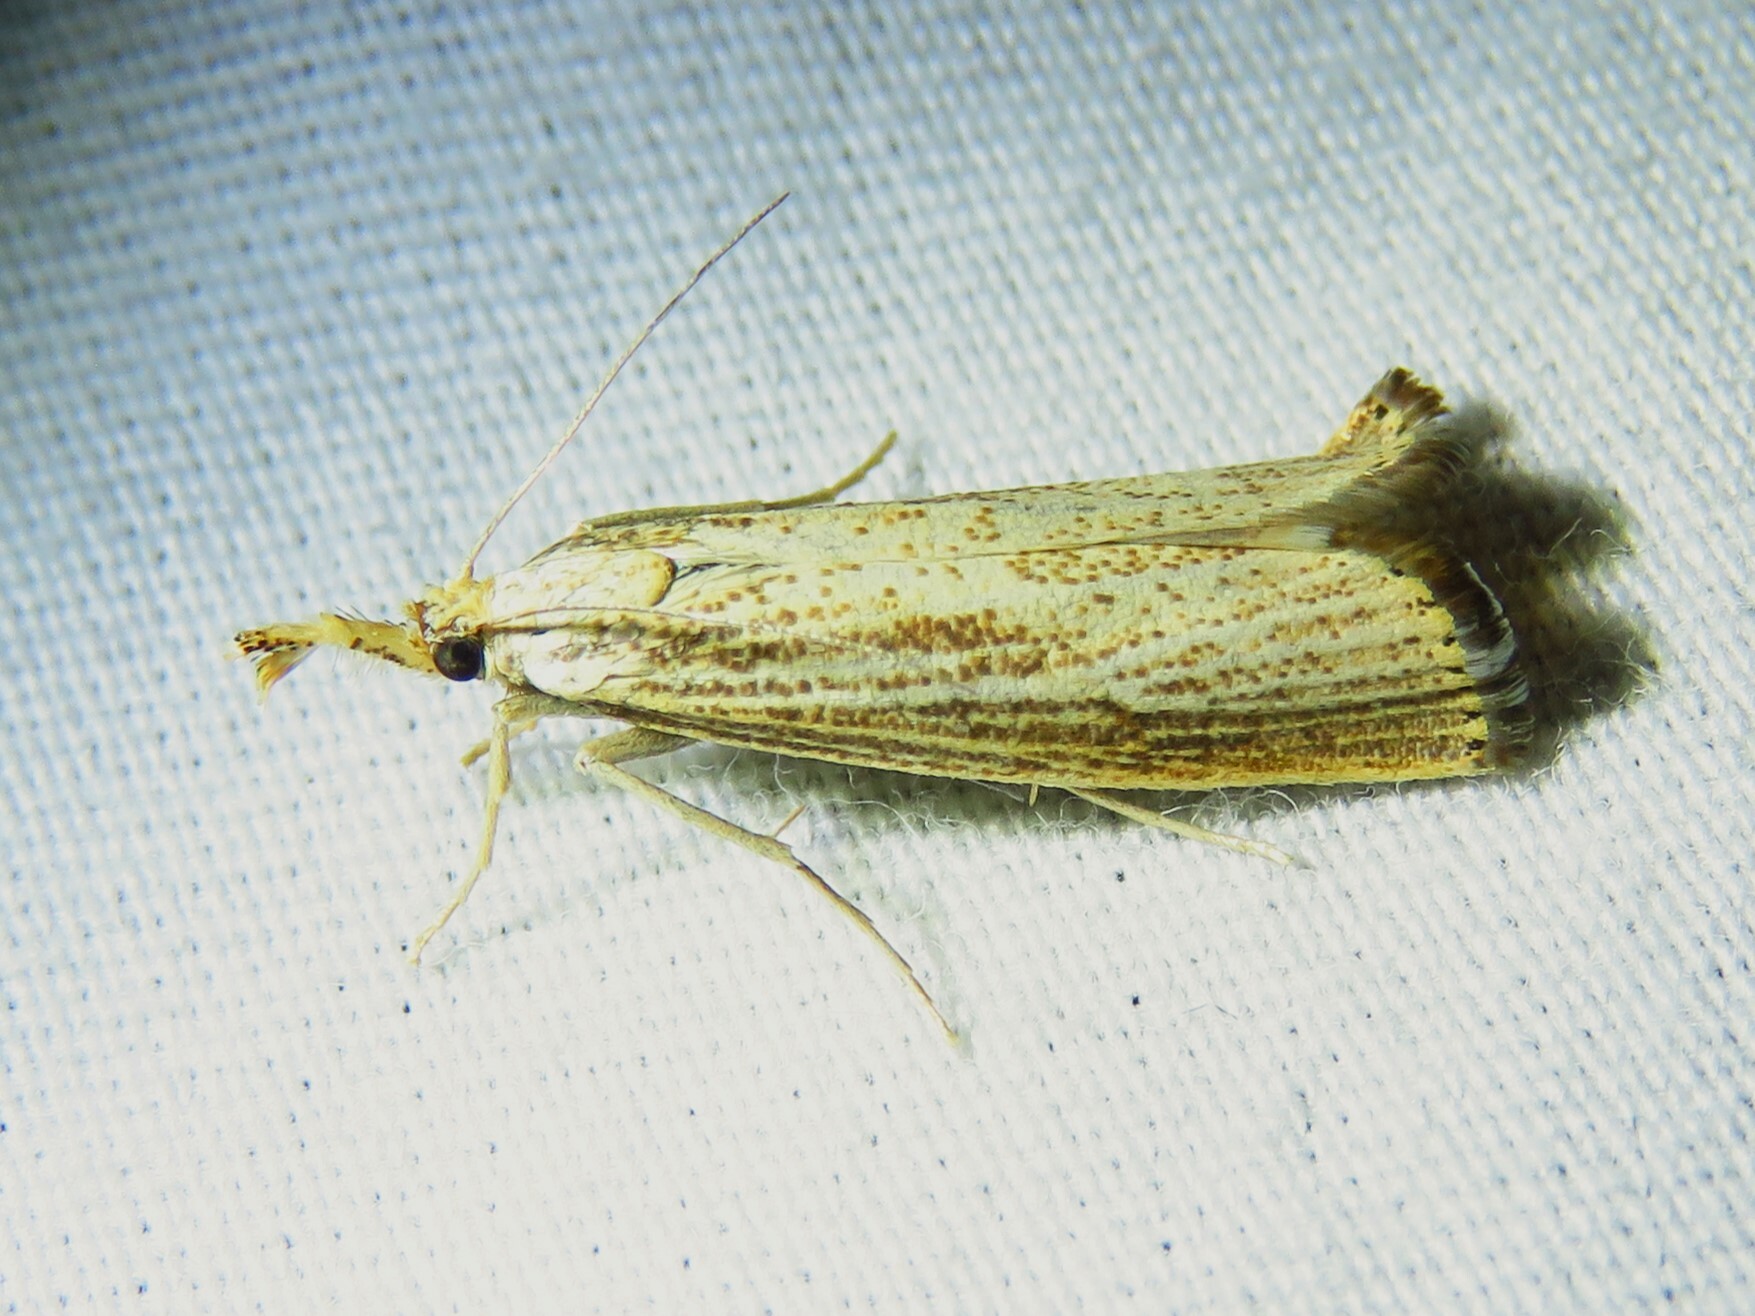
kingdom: Animalia
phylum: Arthropoda
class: Insecta
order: Lepidoptera
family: Crambidae
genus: Agriphila
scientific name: Agriphila vulgivagellus
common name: Vagabond crambus moth
